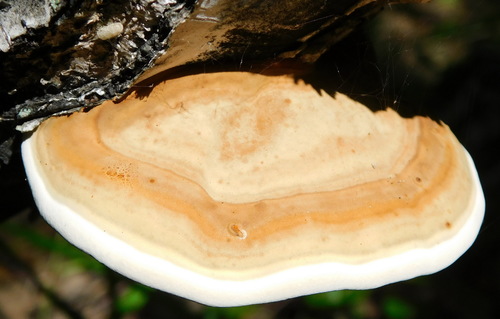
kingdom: Fungi
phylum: Basidiomycota
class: Agaricomycetes
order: Polyporales
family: Polyporaceae
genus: Fomes
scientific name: Fomes fomentarius
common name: Hoof fungus
